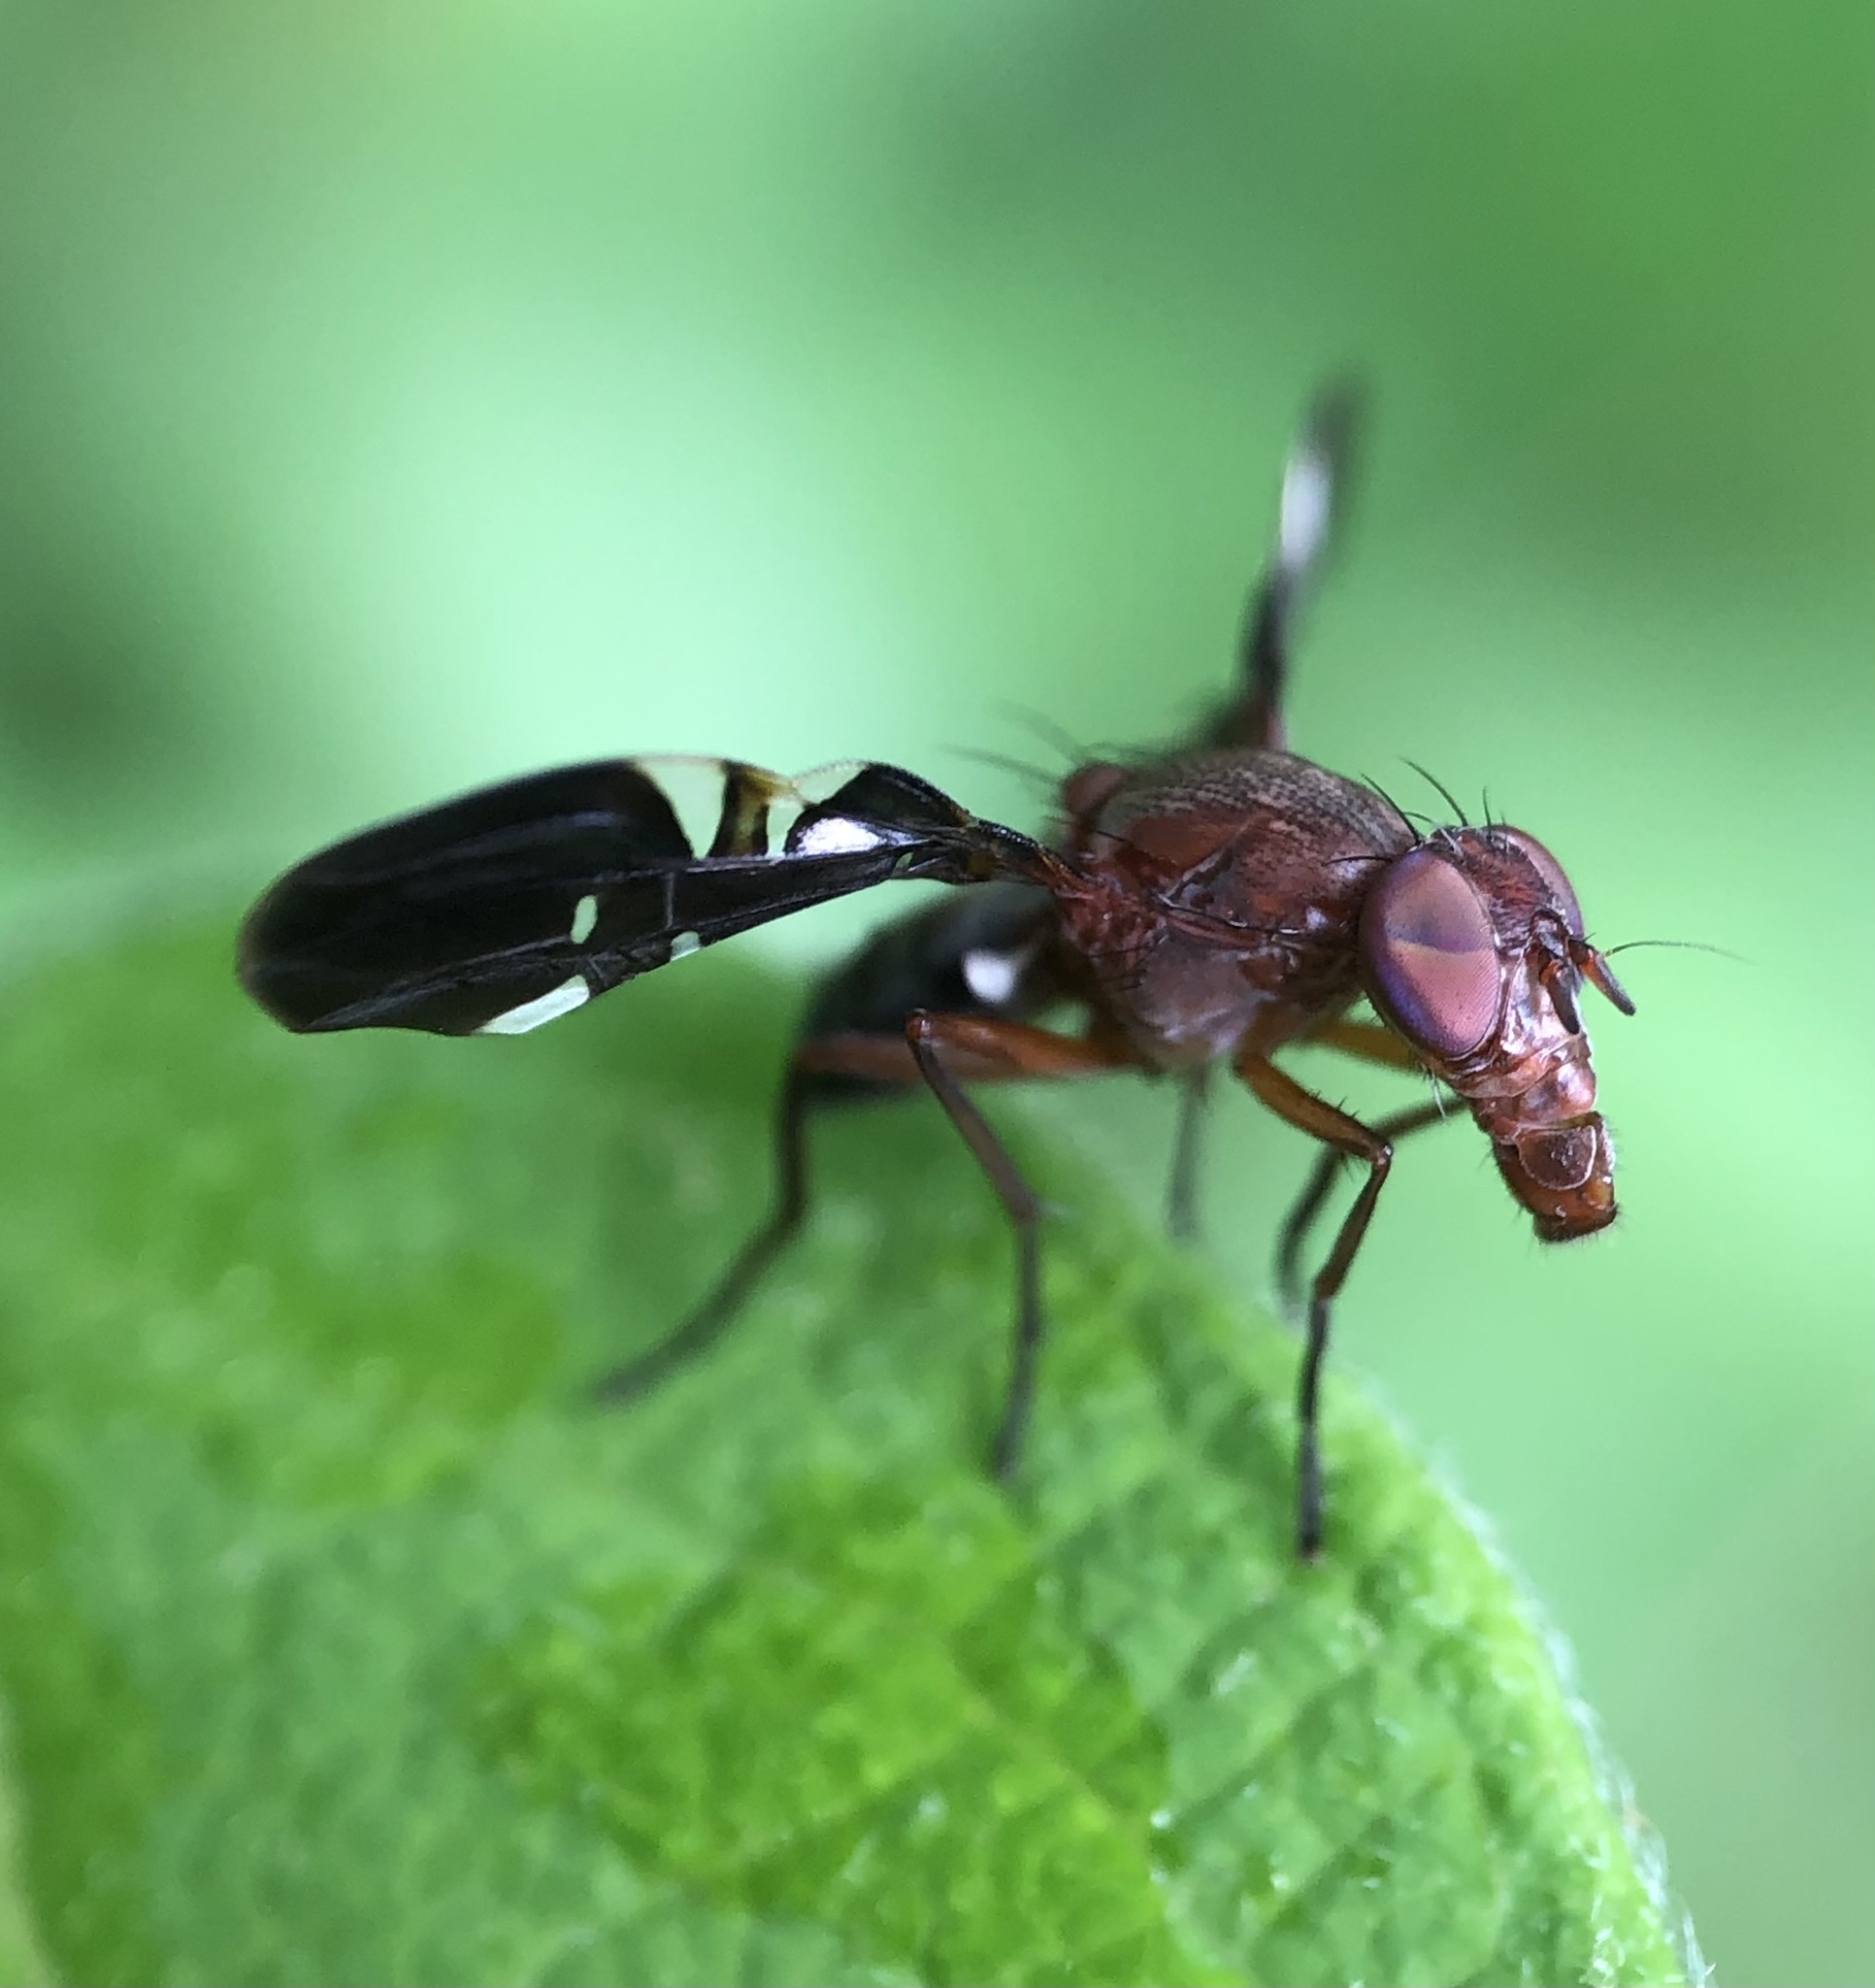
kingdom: Animalia
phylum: Arthropoda
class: Insecta
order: Diptera
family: Ulidiidae
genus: Delphinia
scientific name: Delphinia picta
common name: Common picture-winged fly
